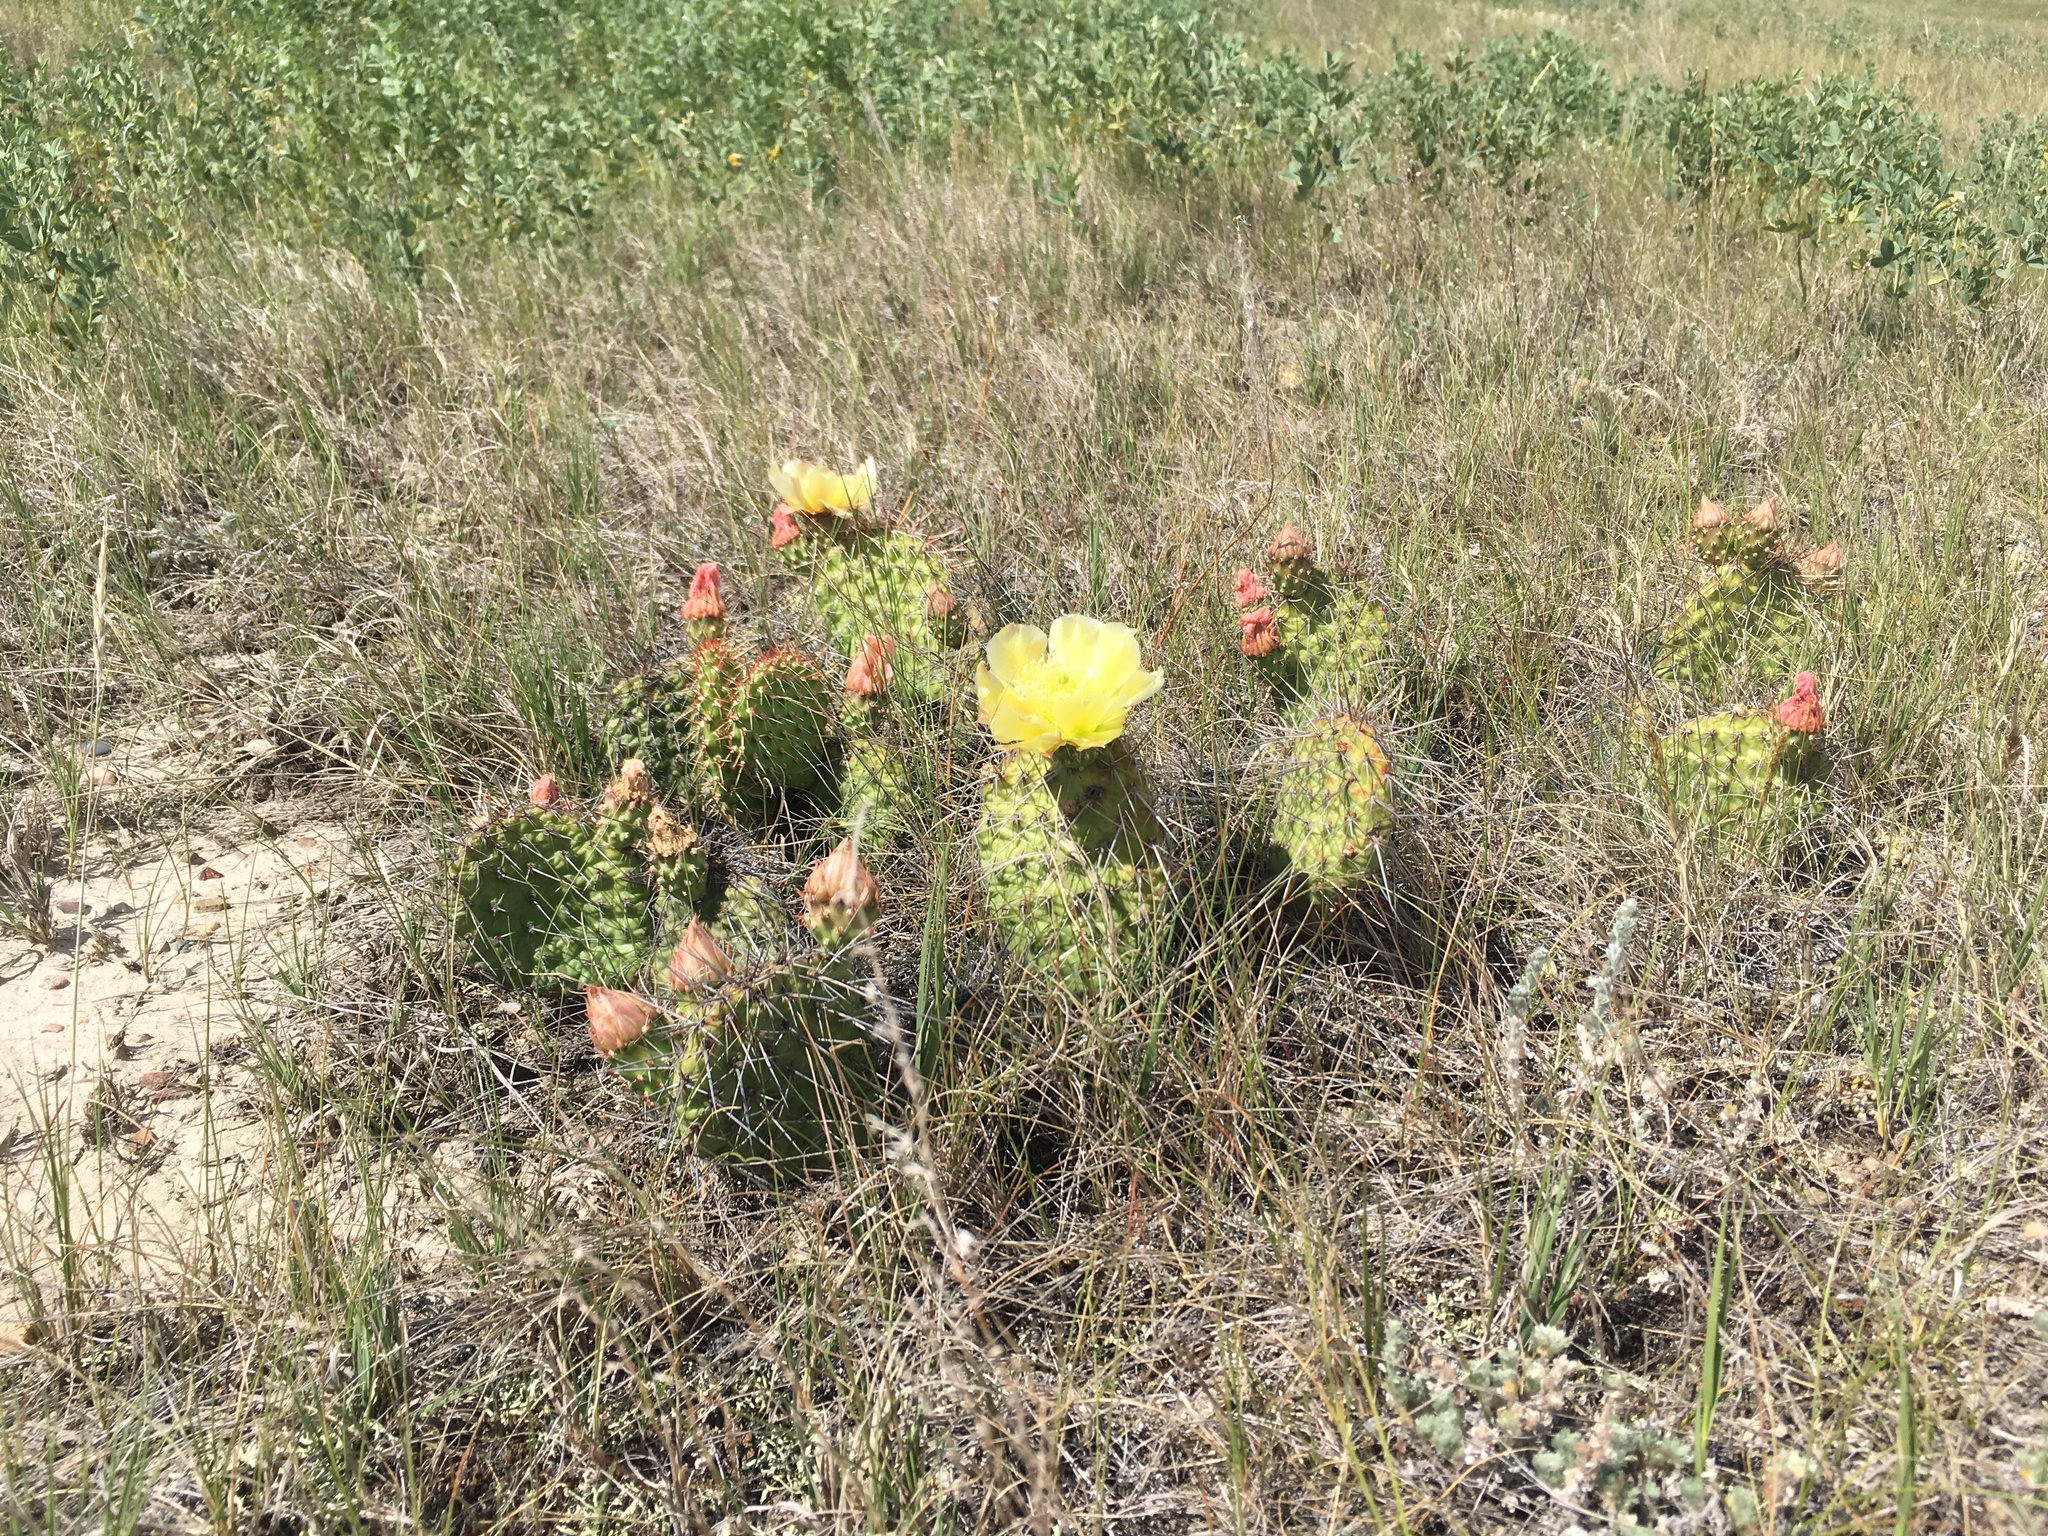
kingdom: Plantae
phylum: Tracheophyta
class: Magnoliopsida
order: Caryophyllales
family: Cactaceae
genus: Opuntia
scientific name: Opuntia fragilis
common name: Brittle cactus
